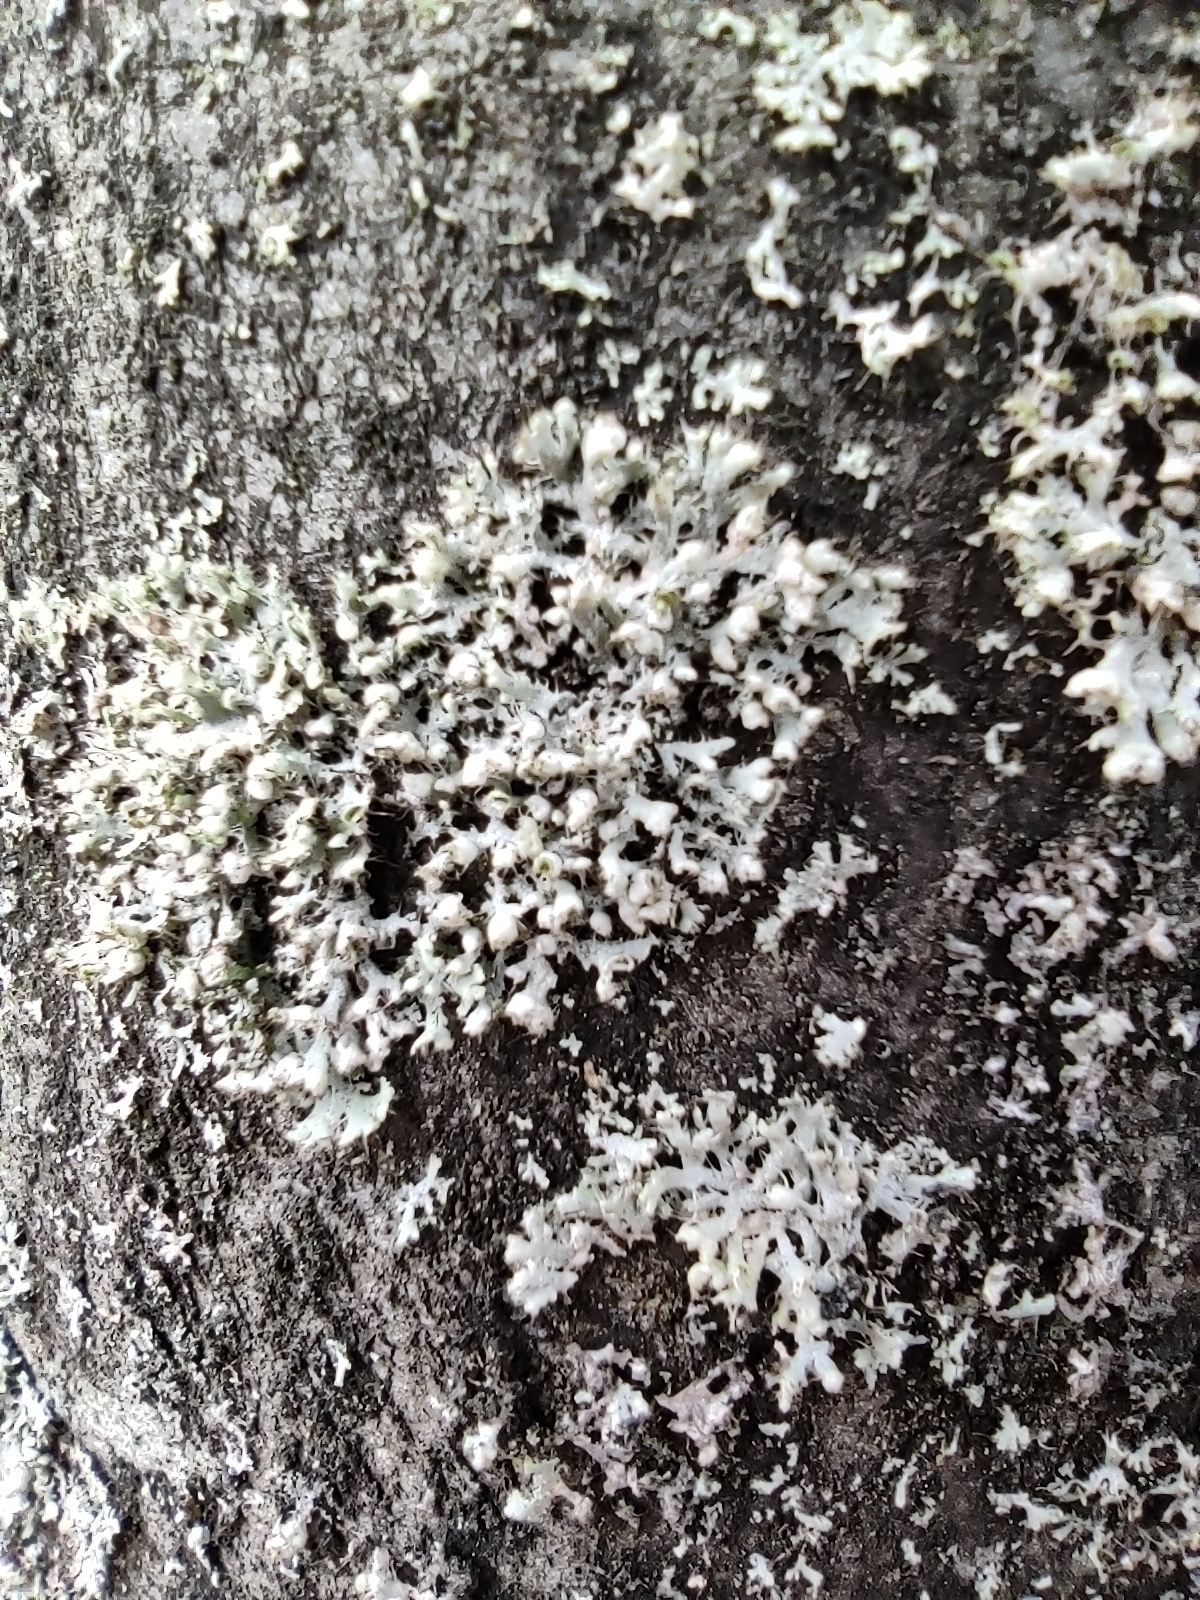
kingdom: Fungi
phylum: Ascomycota
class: Lecanoromycetes
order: Caliciales
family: Physciaceae
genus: Physcia
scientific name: Physcia adscendens
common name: Hooded rosette lichen
